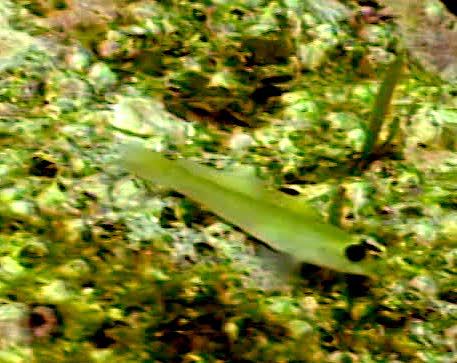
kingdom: Animalia
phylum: Chordata
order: Perciformes
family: Gobiidae
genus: Rhinogobiops
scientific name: Rhinogobiops nicholsii
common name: Blackeye goby
